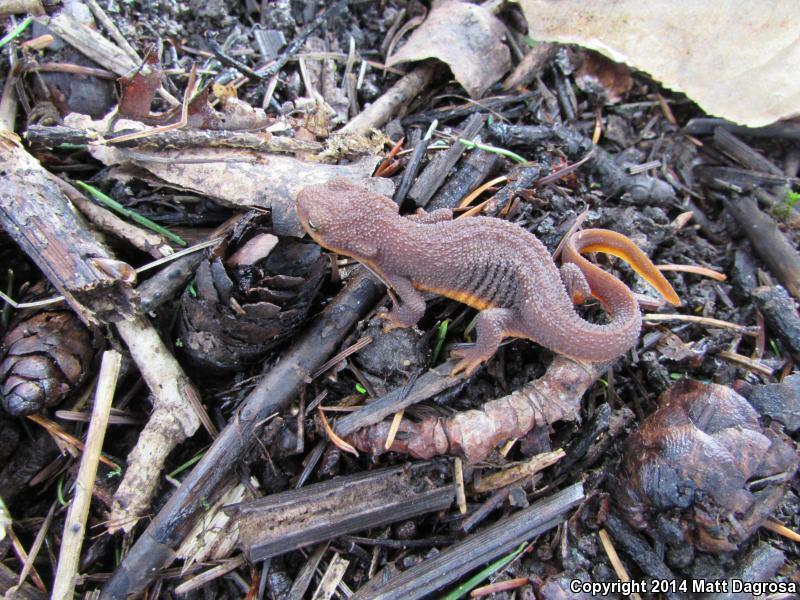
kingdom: Animalia
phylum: Chordata
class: Amphibia
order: Caudata
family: Salamandridae
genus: Taricha
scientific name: Taricha granulosa
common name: Roughskin newt
